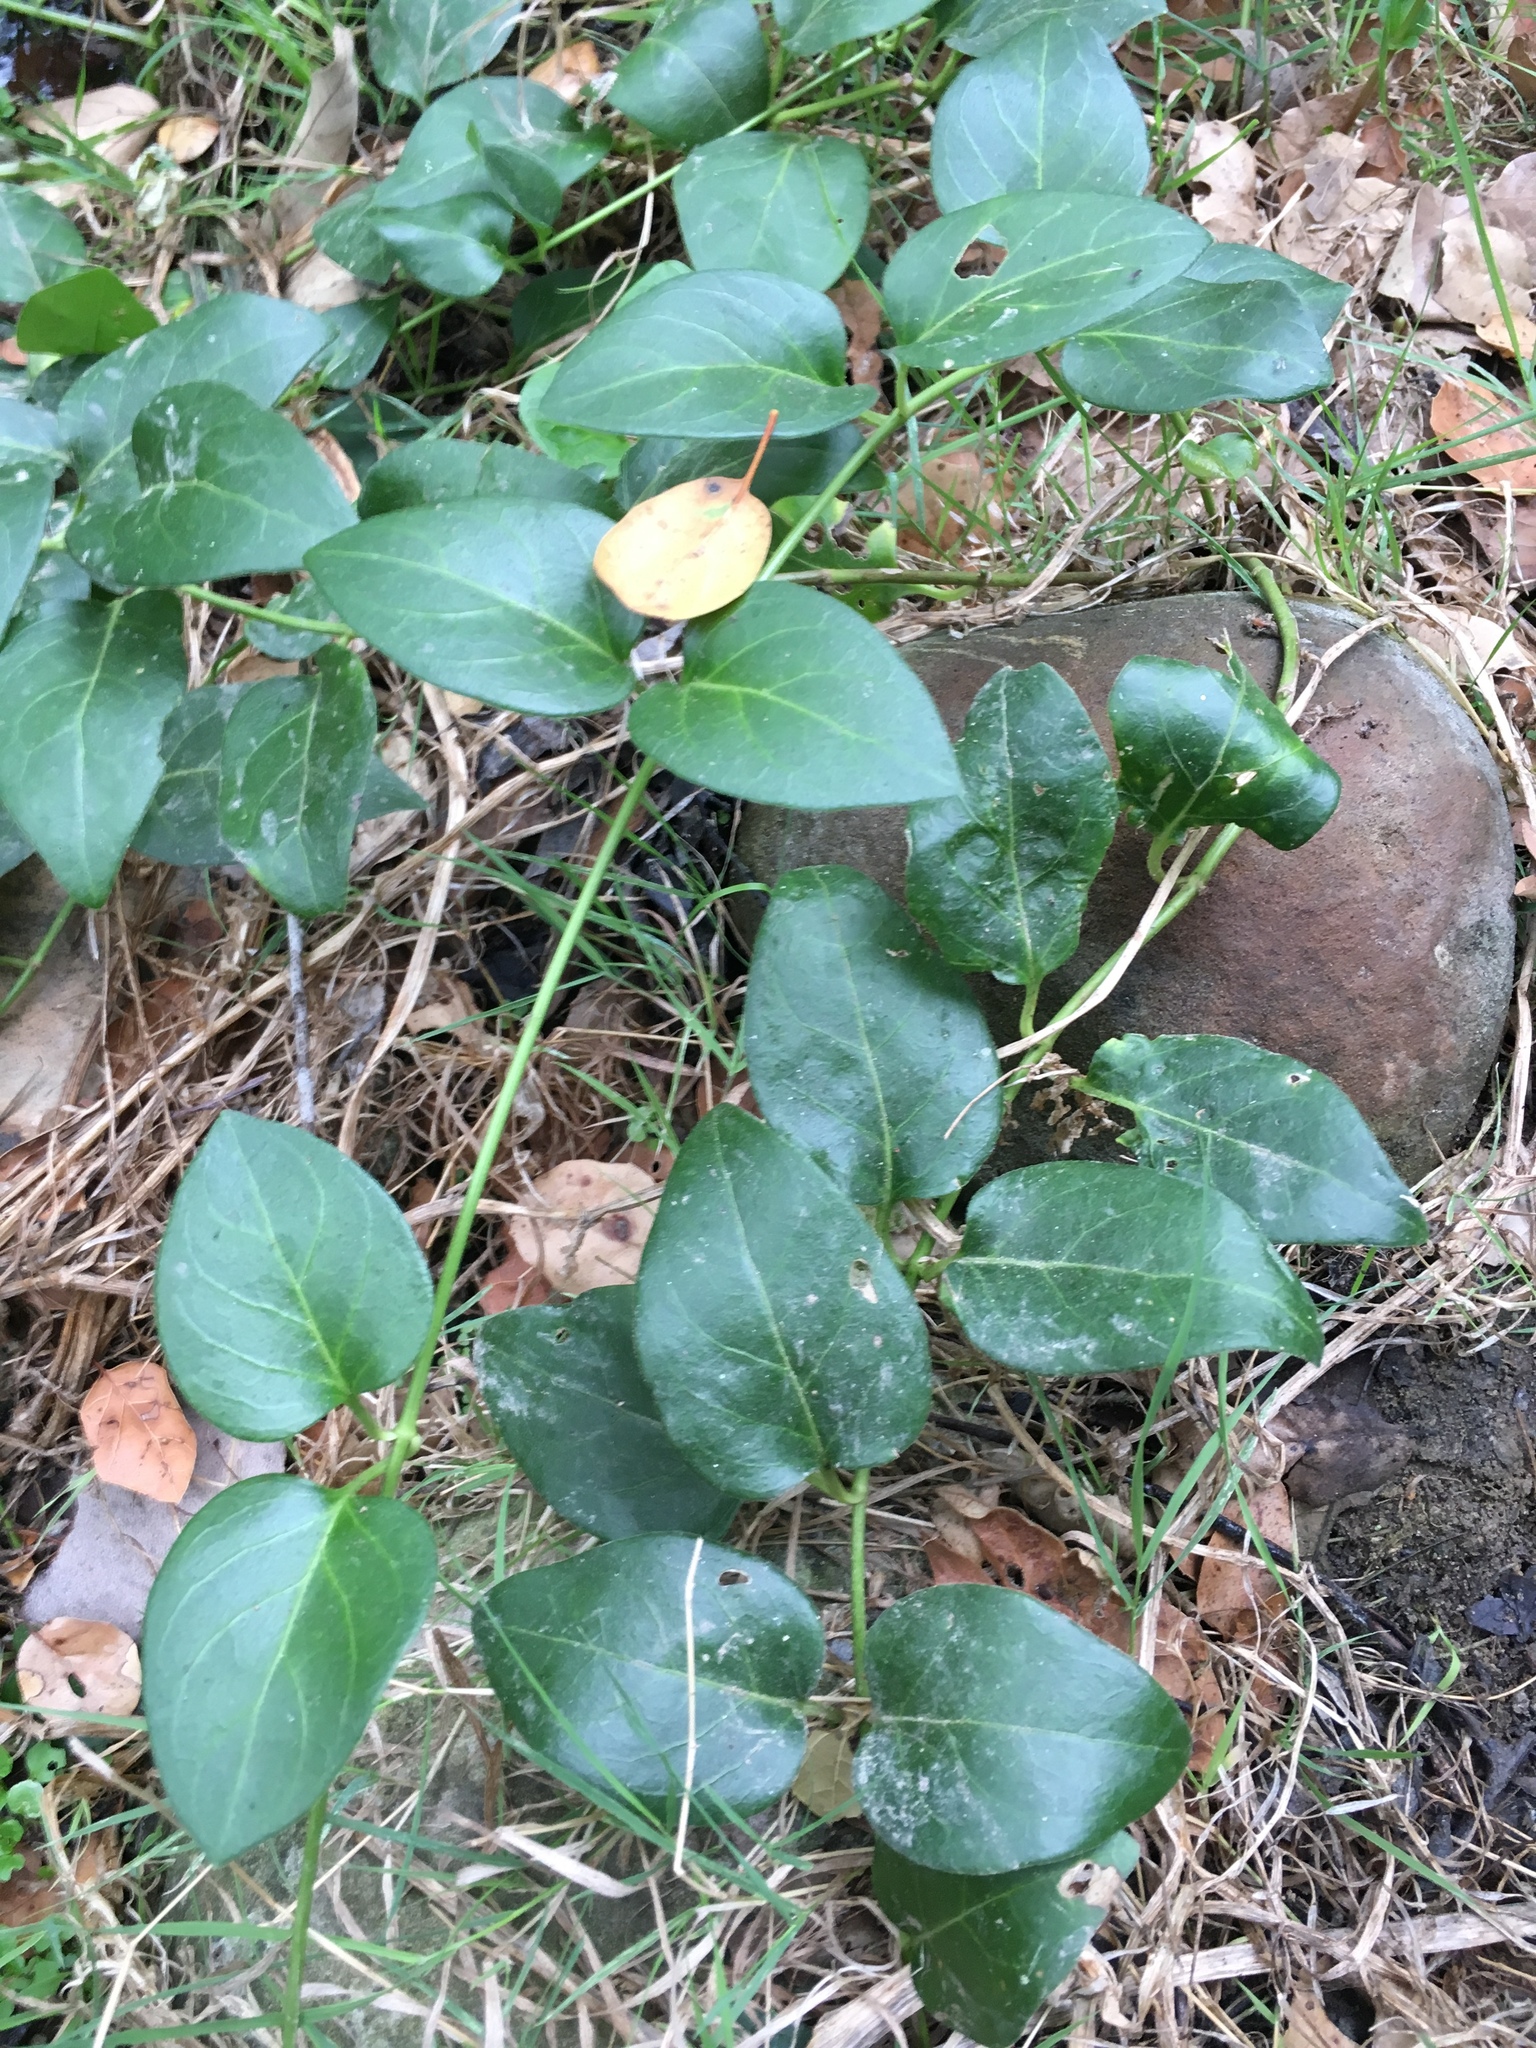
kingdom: Plantae
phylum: Tracheophyta
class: Magnoliopsida
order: Gentianales
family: Apocynaceae
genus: Vinca
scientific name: Vinca major
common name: Greater periwinkle
